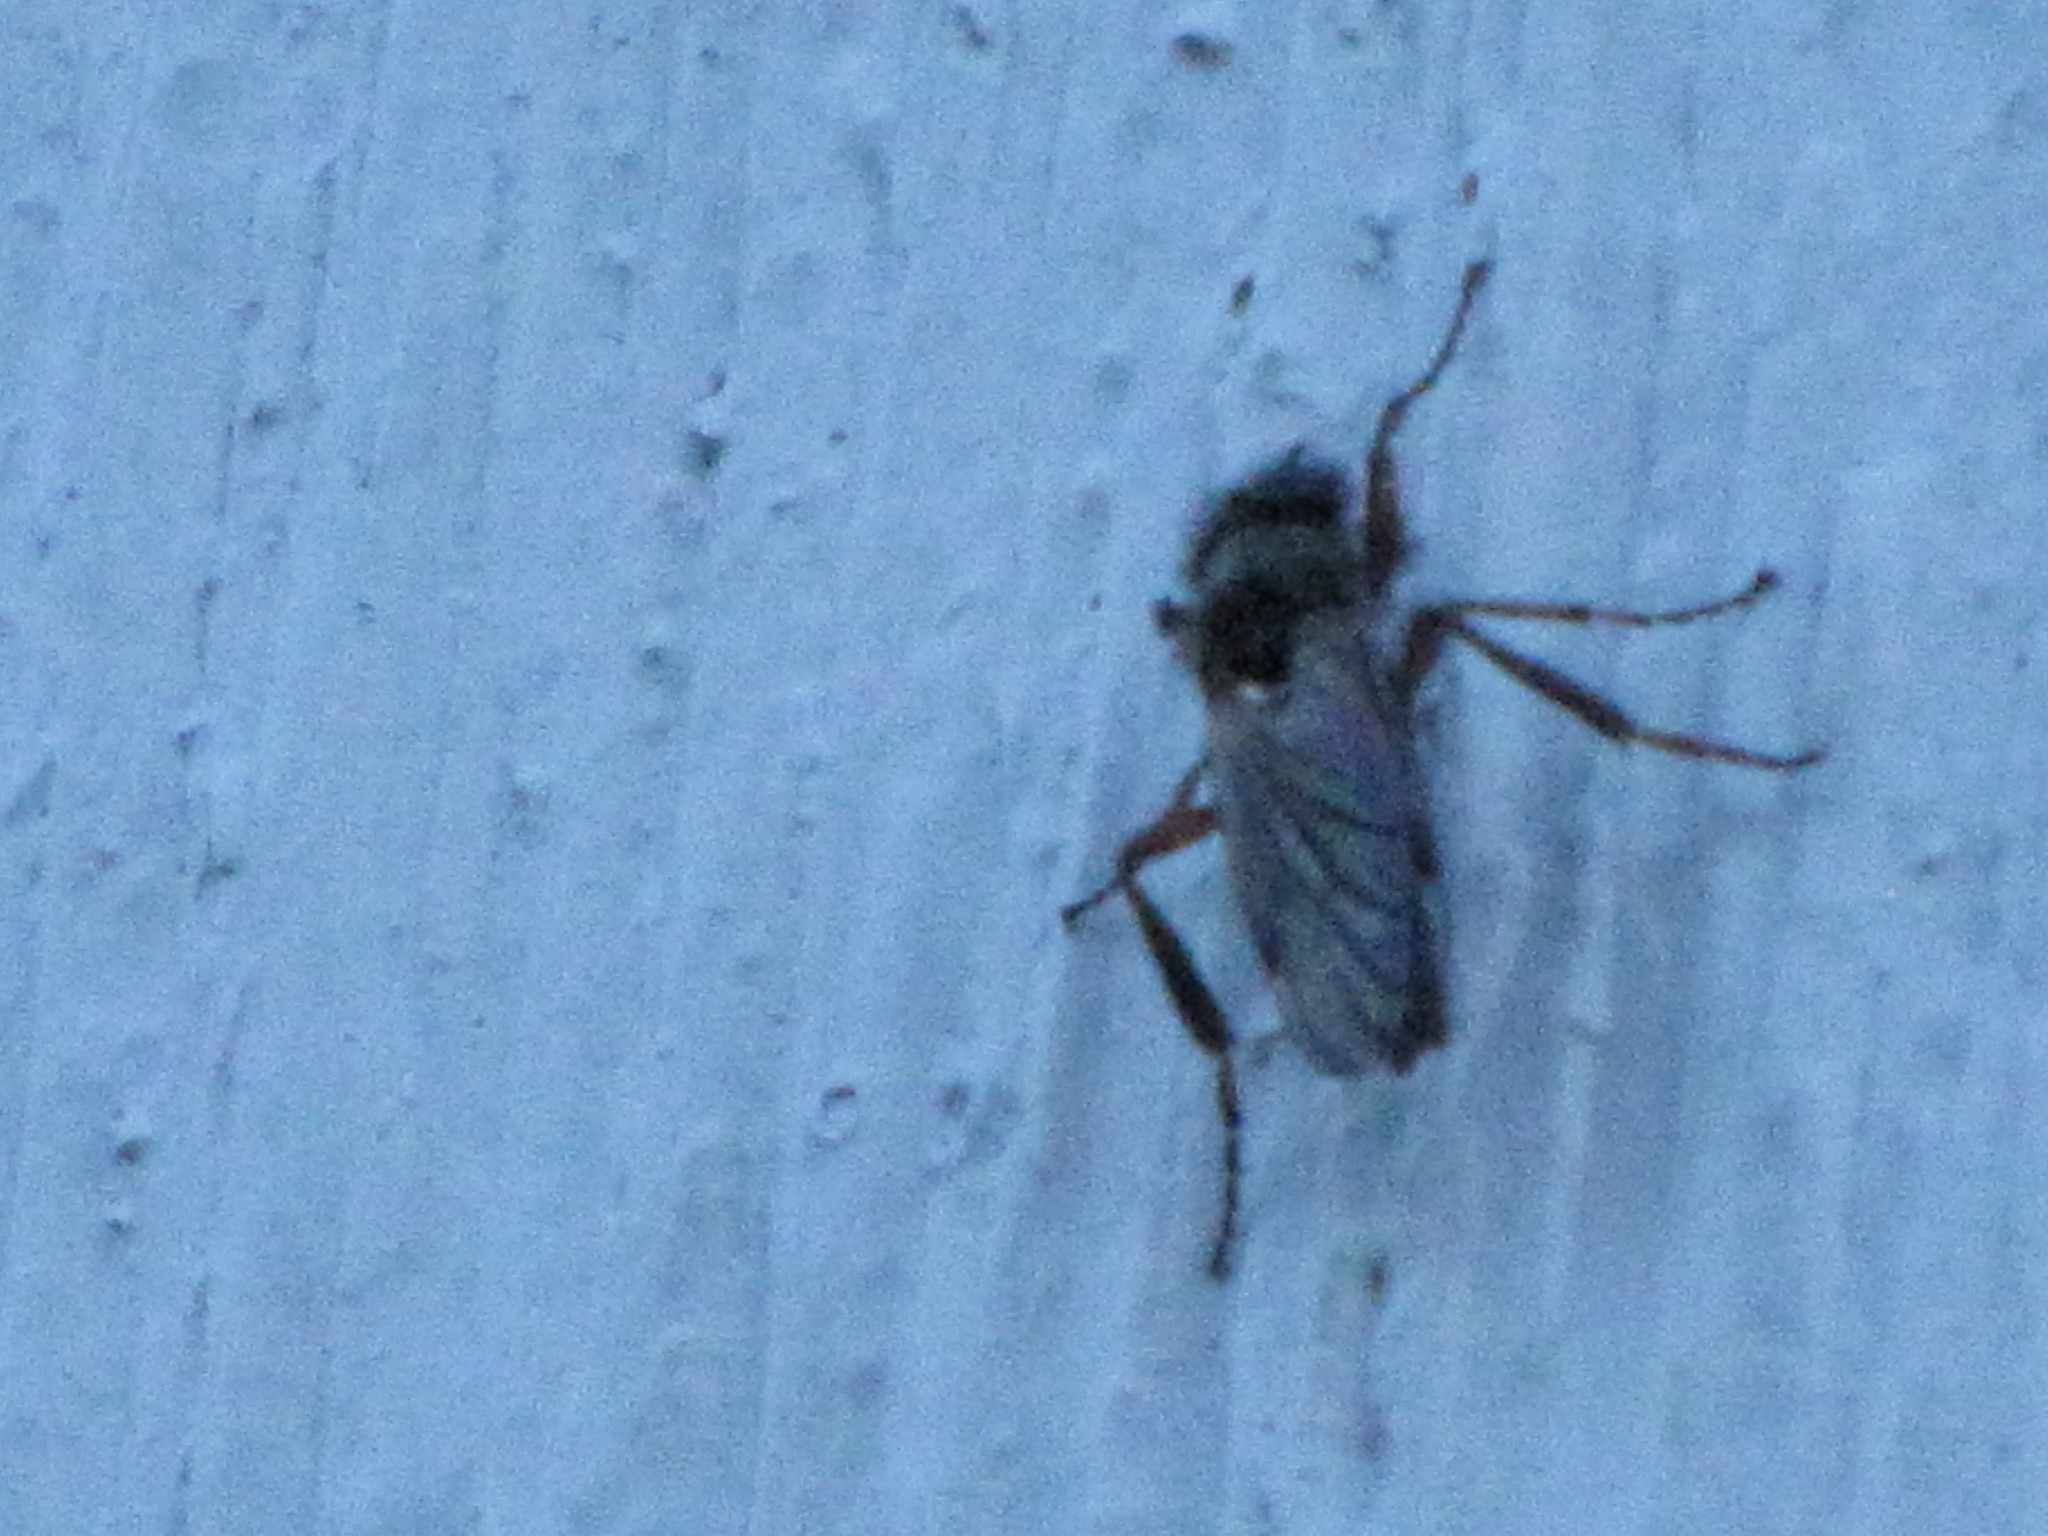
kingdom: Animalia
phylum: Arthropoda
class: Insecta
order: Diptera
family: Bibionidae
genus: Bibio
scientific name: Bibio
